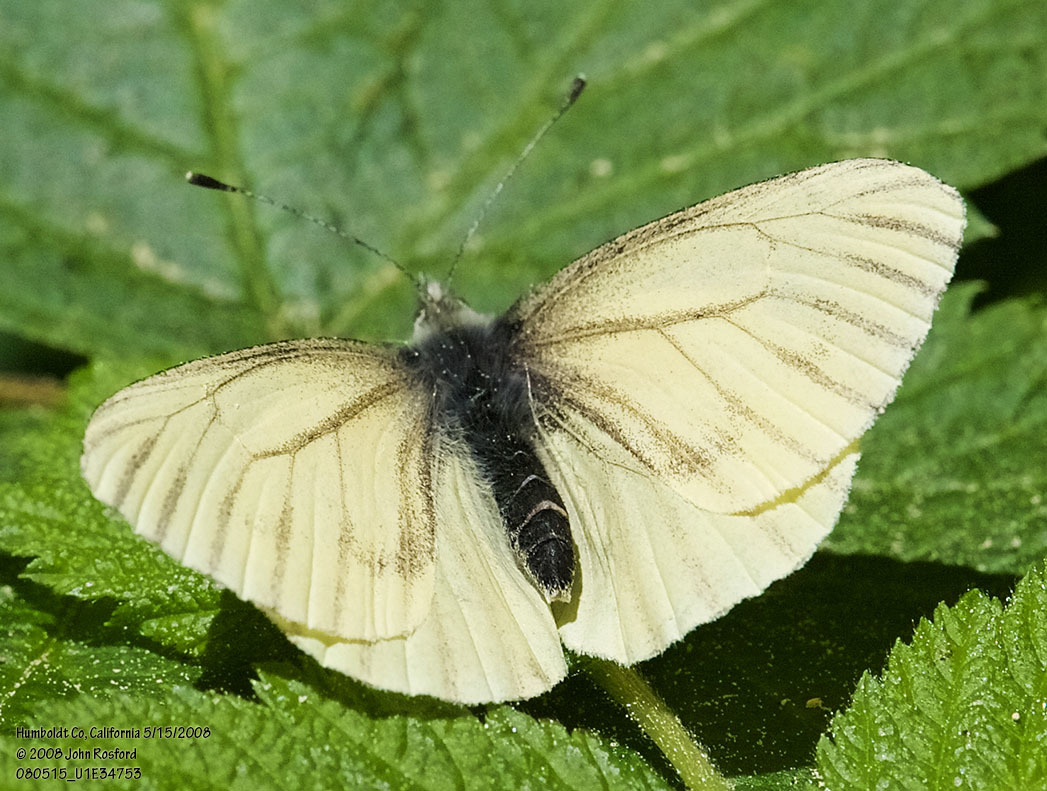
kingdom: Animalia
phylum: Arthropoda
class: Insecta
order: Lepidoptera
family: Pieridae
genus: Pieris
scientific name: Pieris marginalis
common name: Margined white
